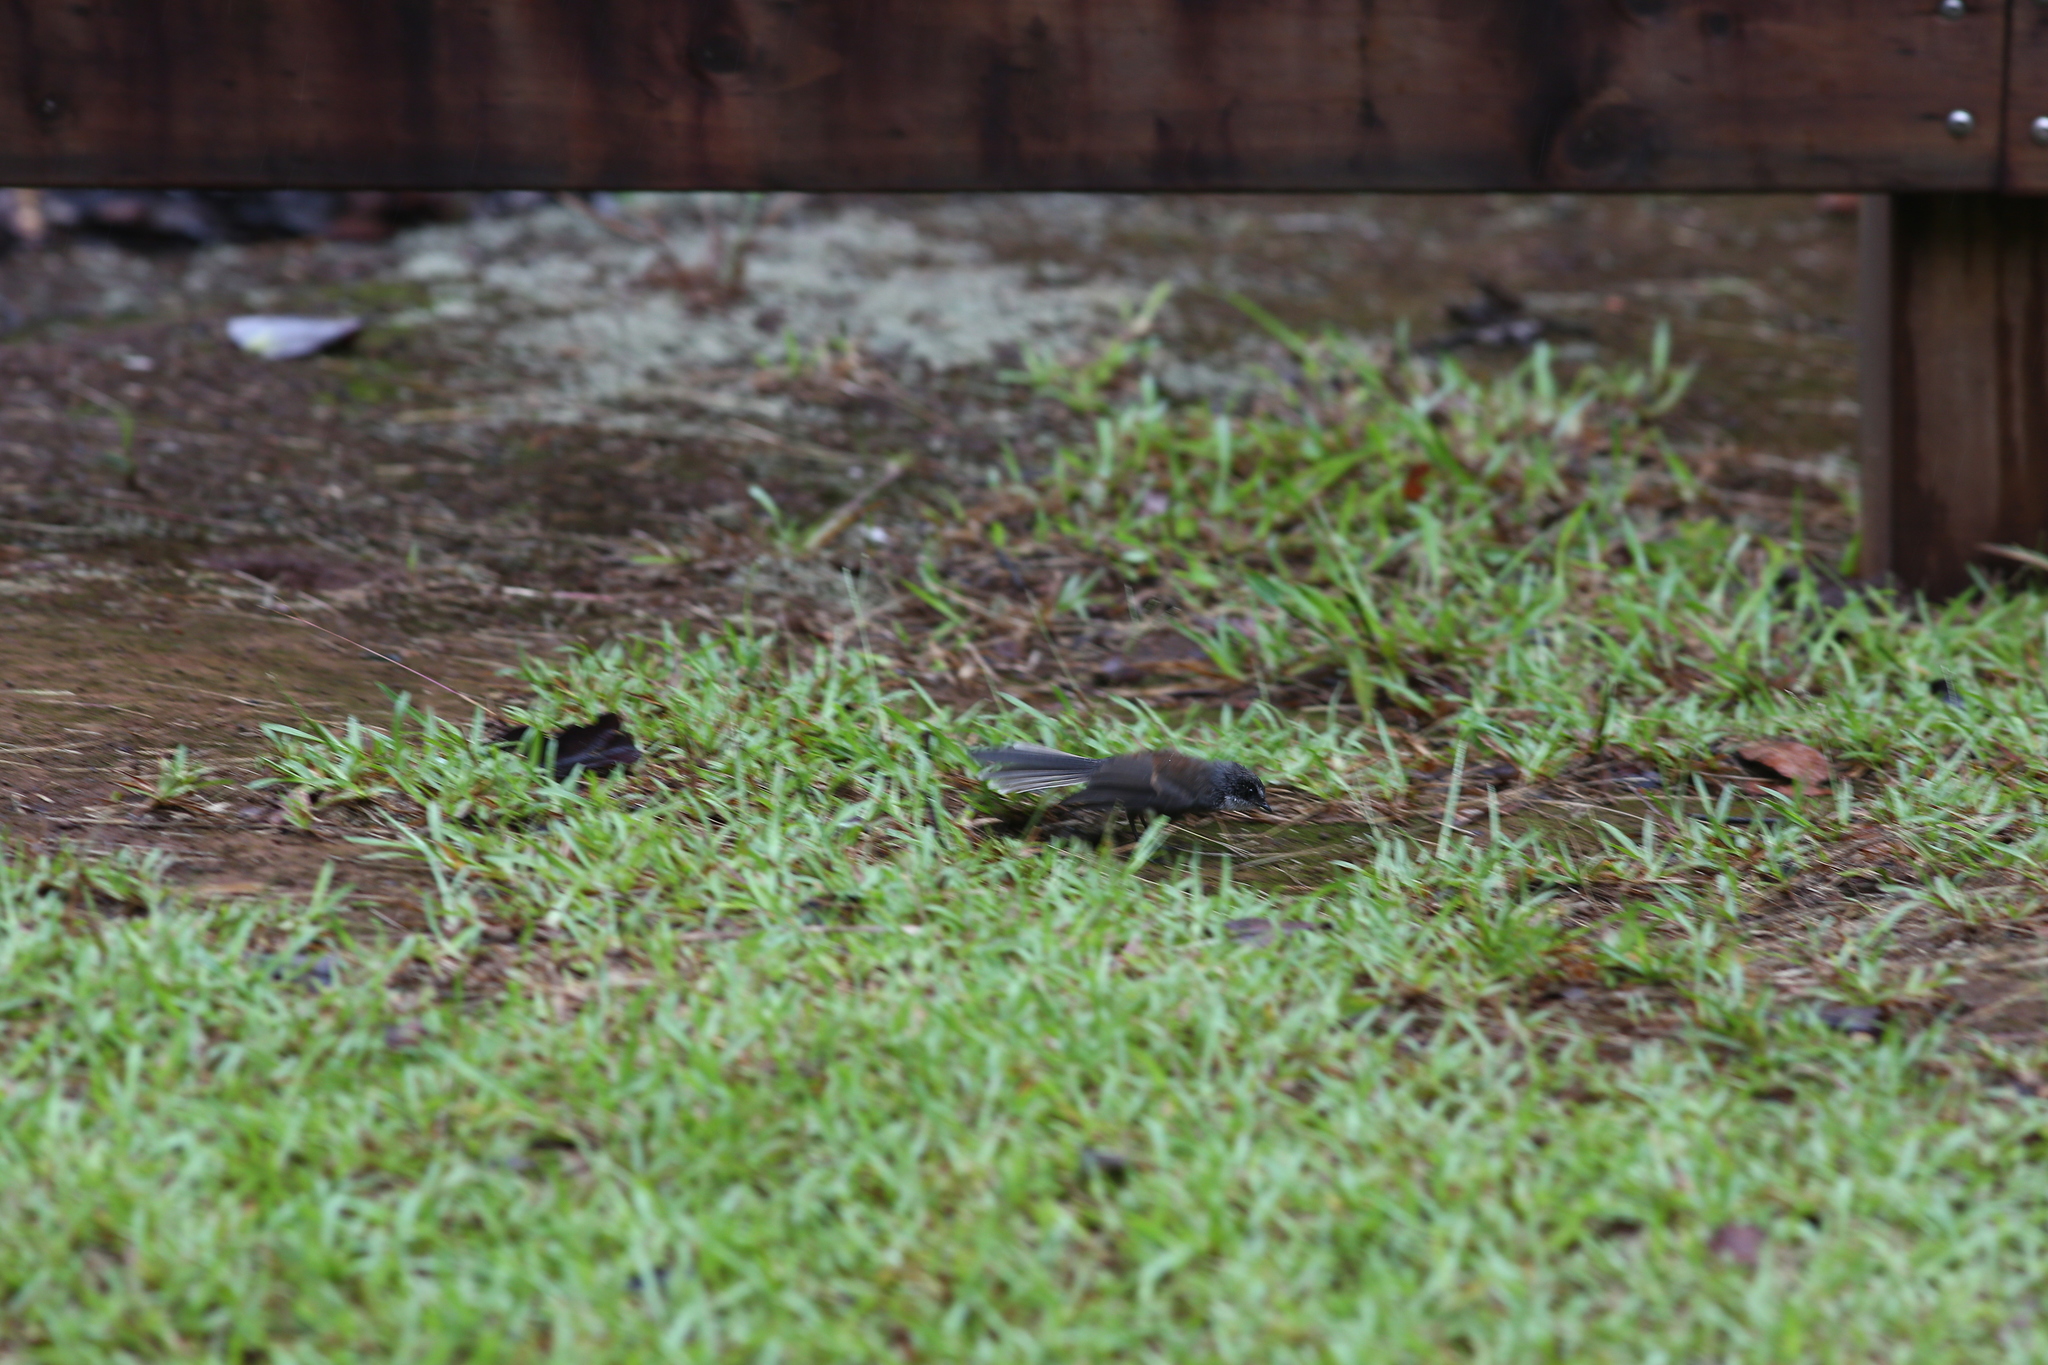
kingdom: Animalia
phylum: Chordata
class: Aves
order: Passeriformes
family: Rhipiduridae
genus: Rhipidura
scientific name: Rhipidura albiscapa
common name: Grey fantail
